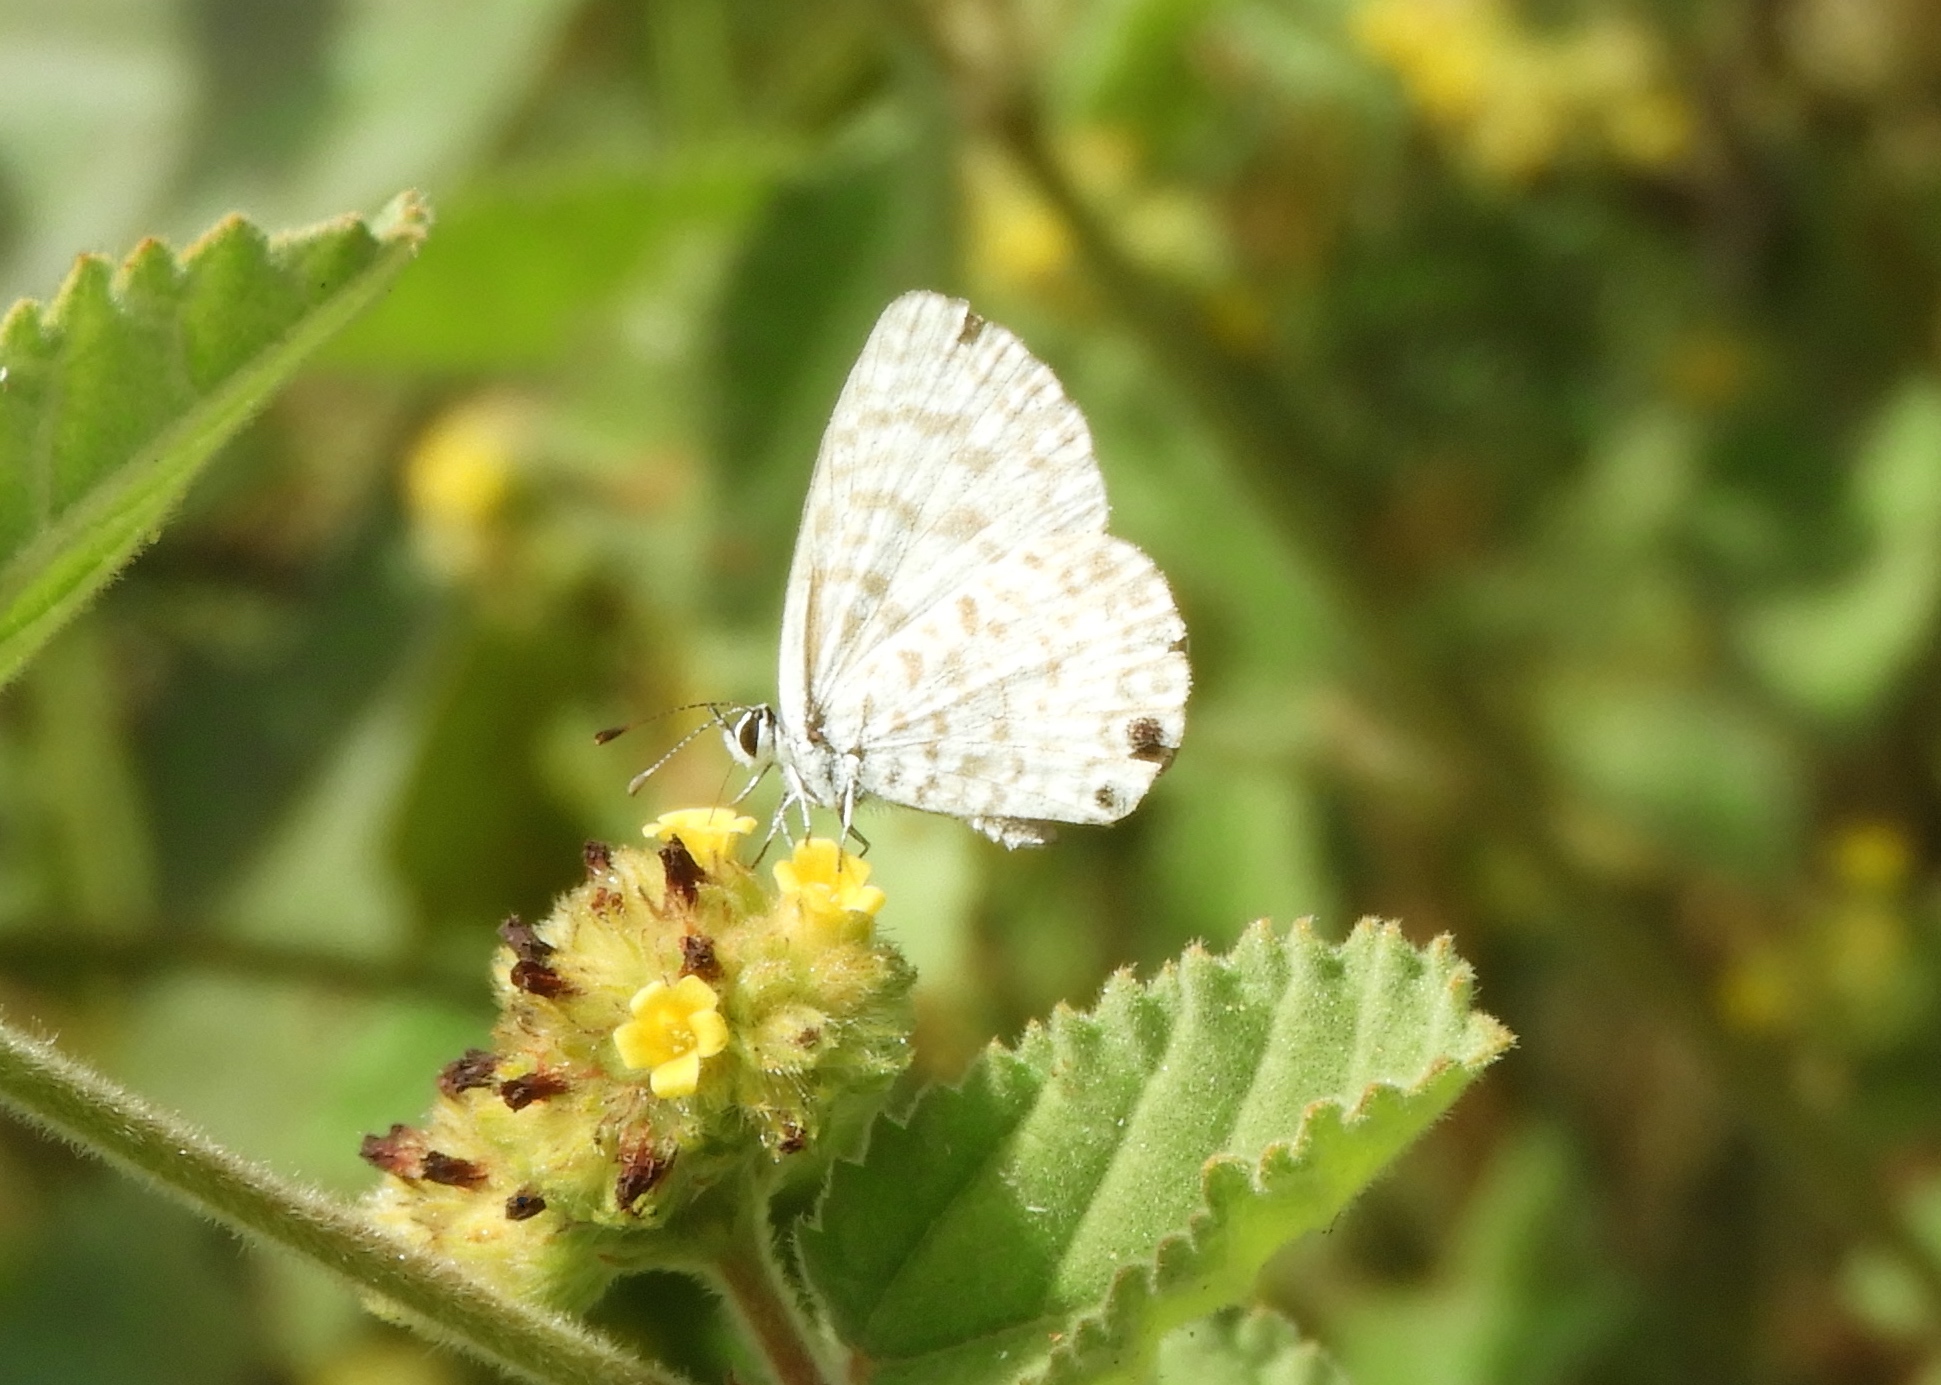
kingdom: Animalia
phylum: Arthropoda
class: Insecta
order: Lepidoptera
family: Lycaenidae
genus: Leptotes
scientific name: Leptotes cassius
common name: Cassius blue
